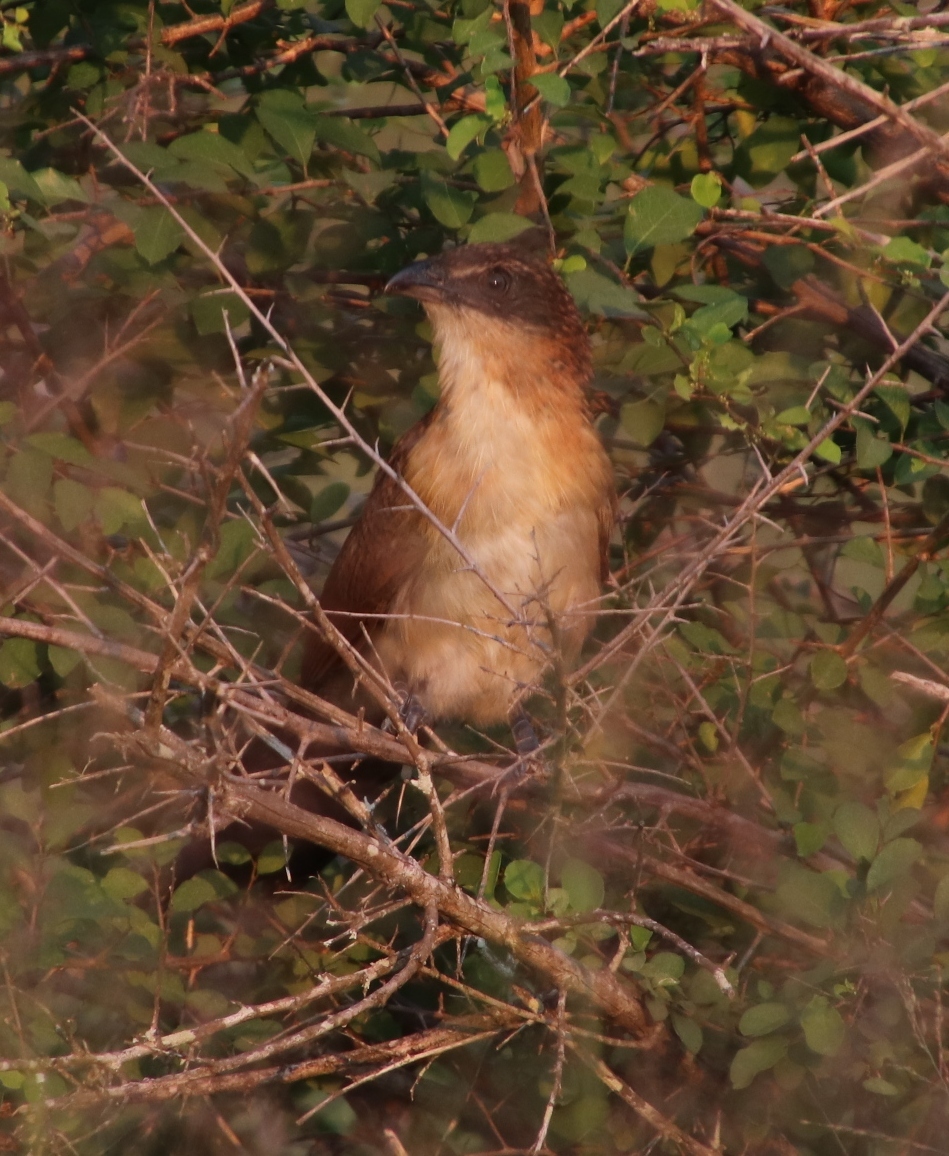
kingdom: Animalia
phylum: Chordata
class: Aves
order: Cuculiformes
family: Cuculidae
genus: Centropus
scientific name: Centropus superciliosus
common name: White-browed coucal
